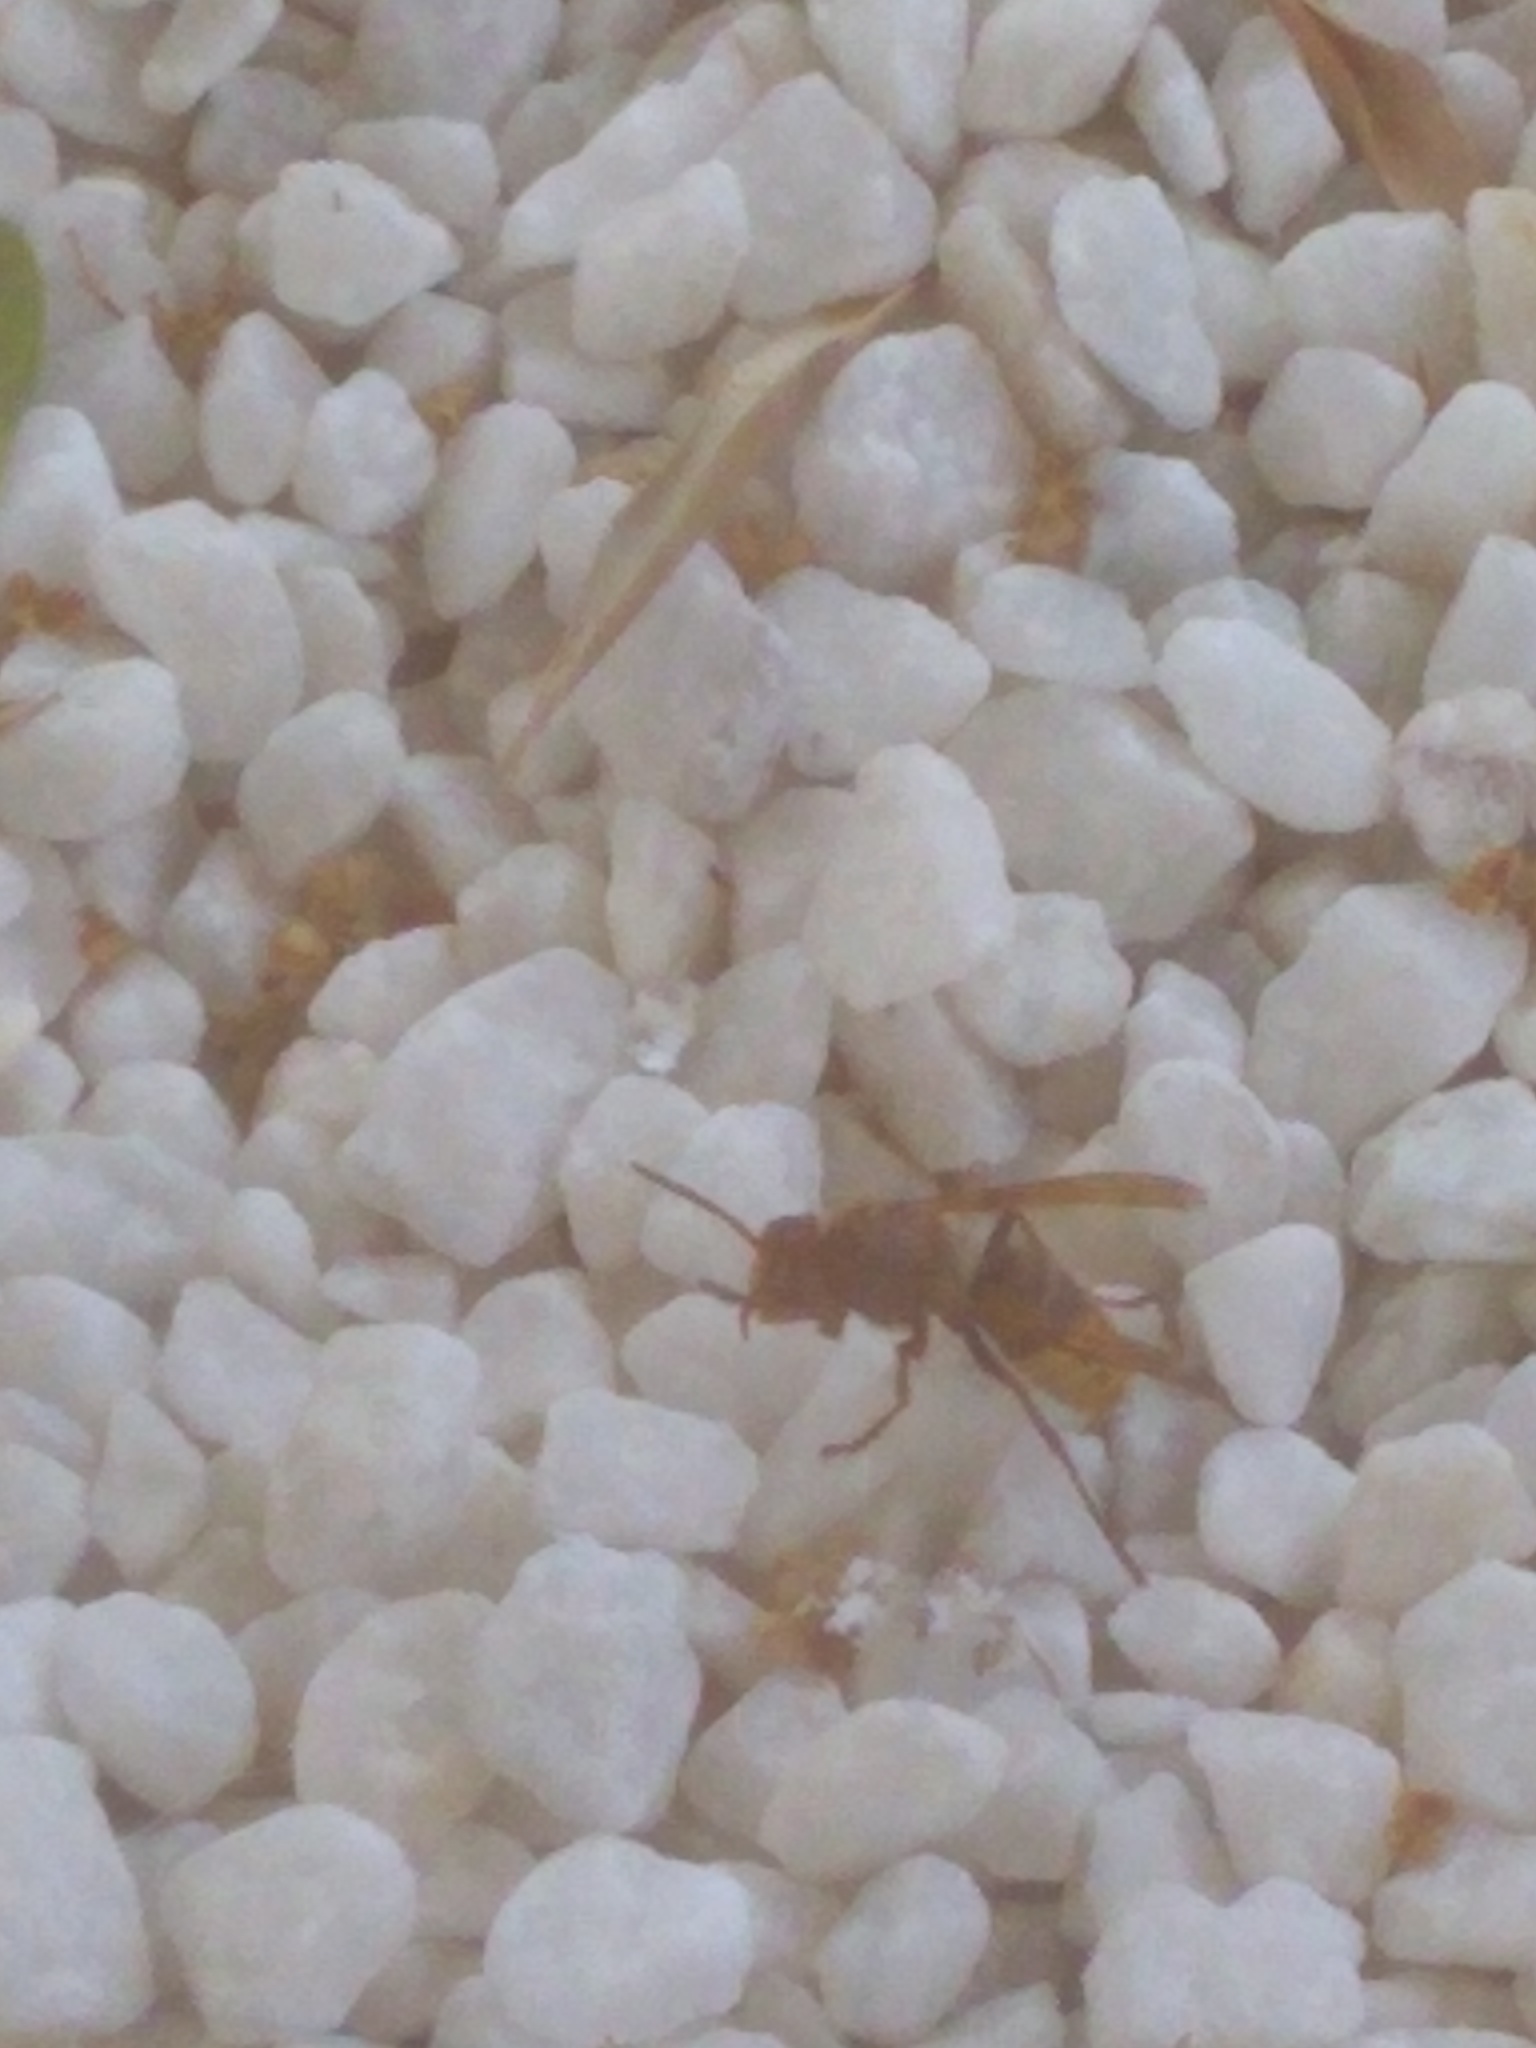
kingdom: Animalia
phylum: Arthropoda
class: Insecta
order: Hymenoptera
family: Vespidae
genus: Vespa
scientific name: Vespa crabro
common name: Hornet
